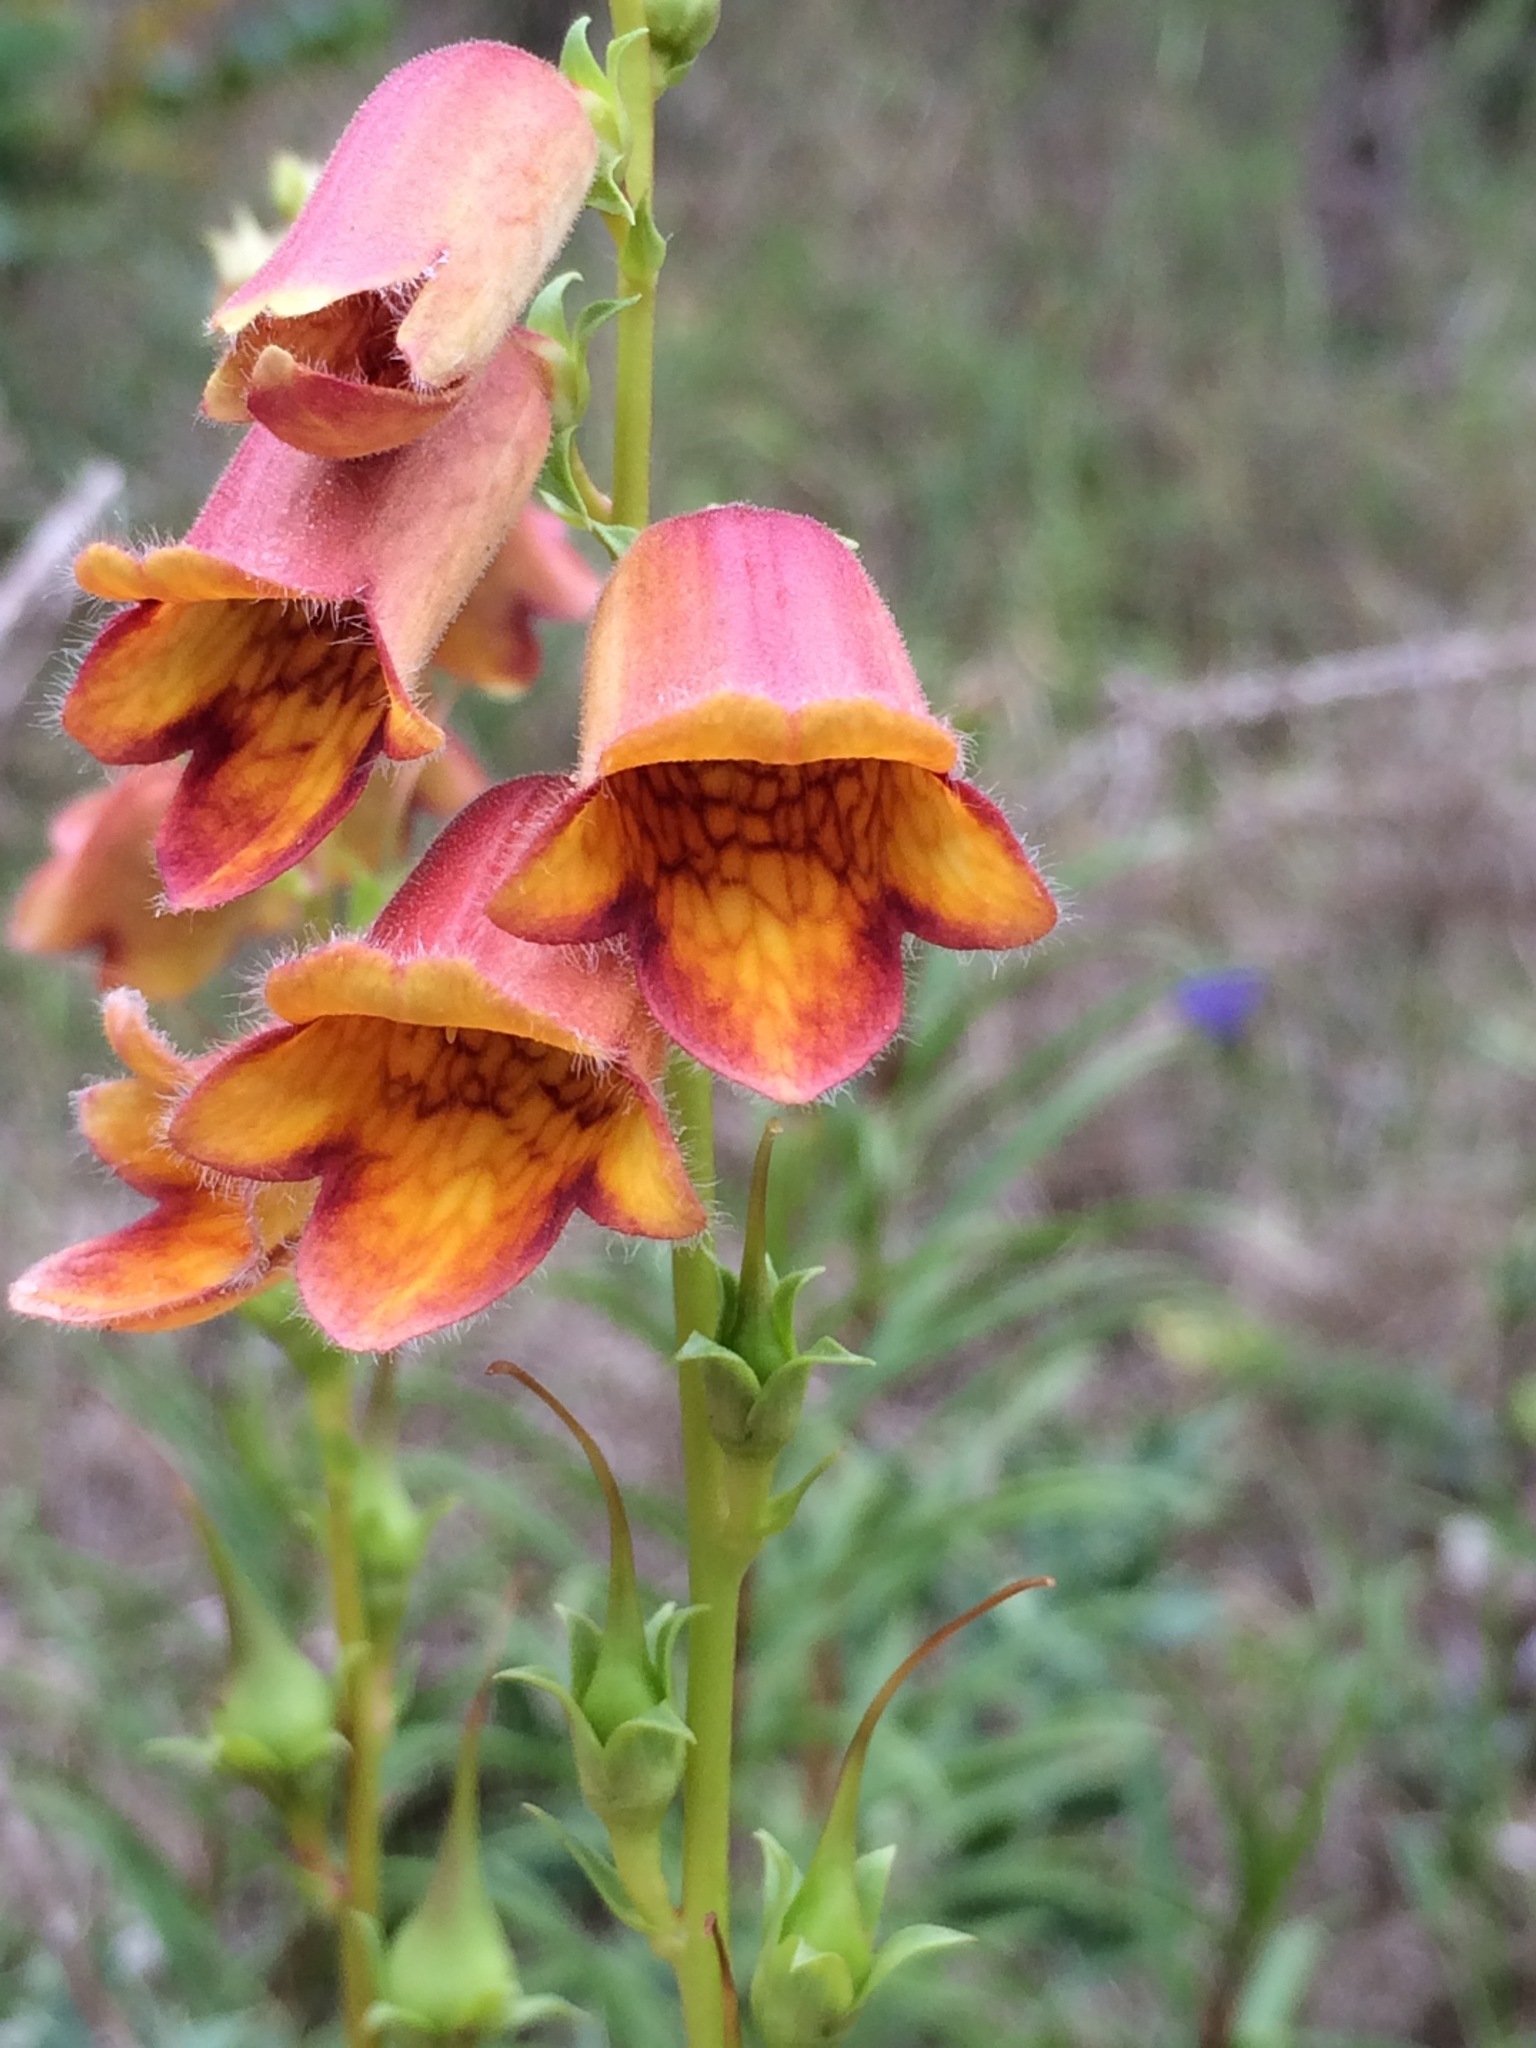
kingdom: Plantae
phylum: Tracheophyta
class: Magnoliopsida
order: Lamiales
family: Plantaginaceae
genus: Digitalis
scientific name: Digitalis obscura
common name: Willow-leaf foxglove
